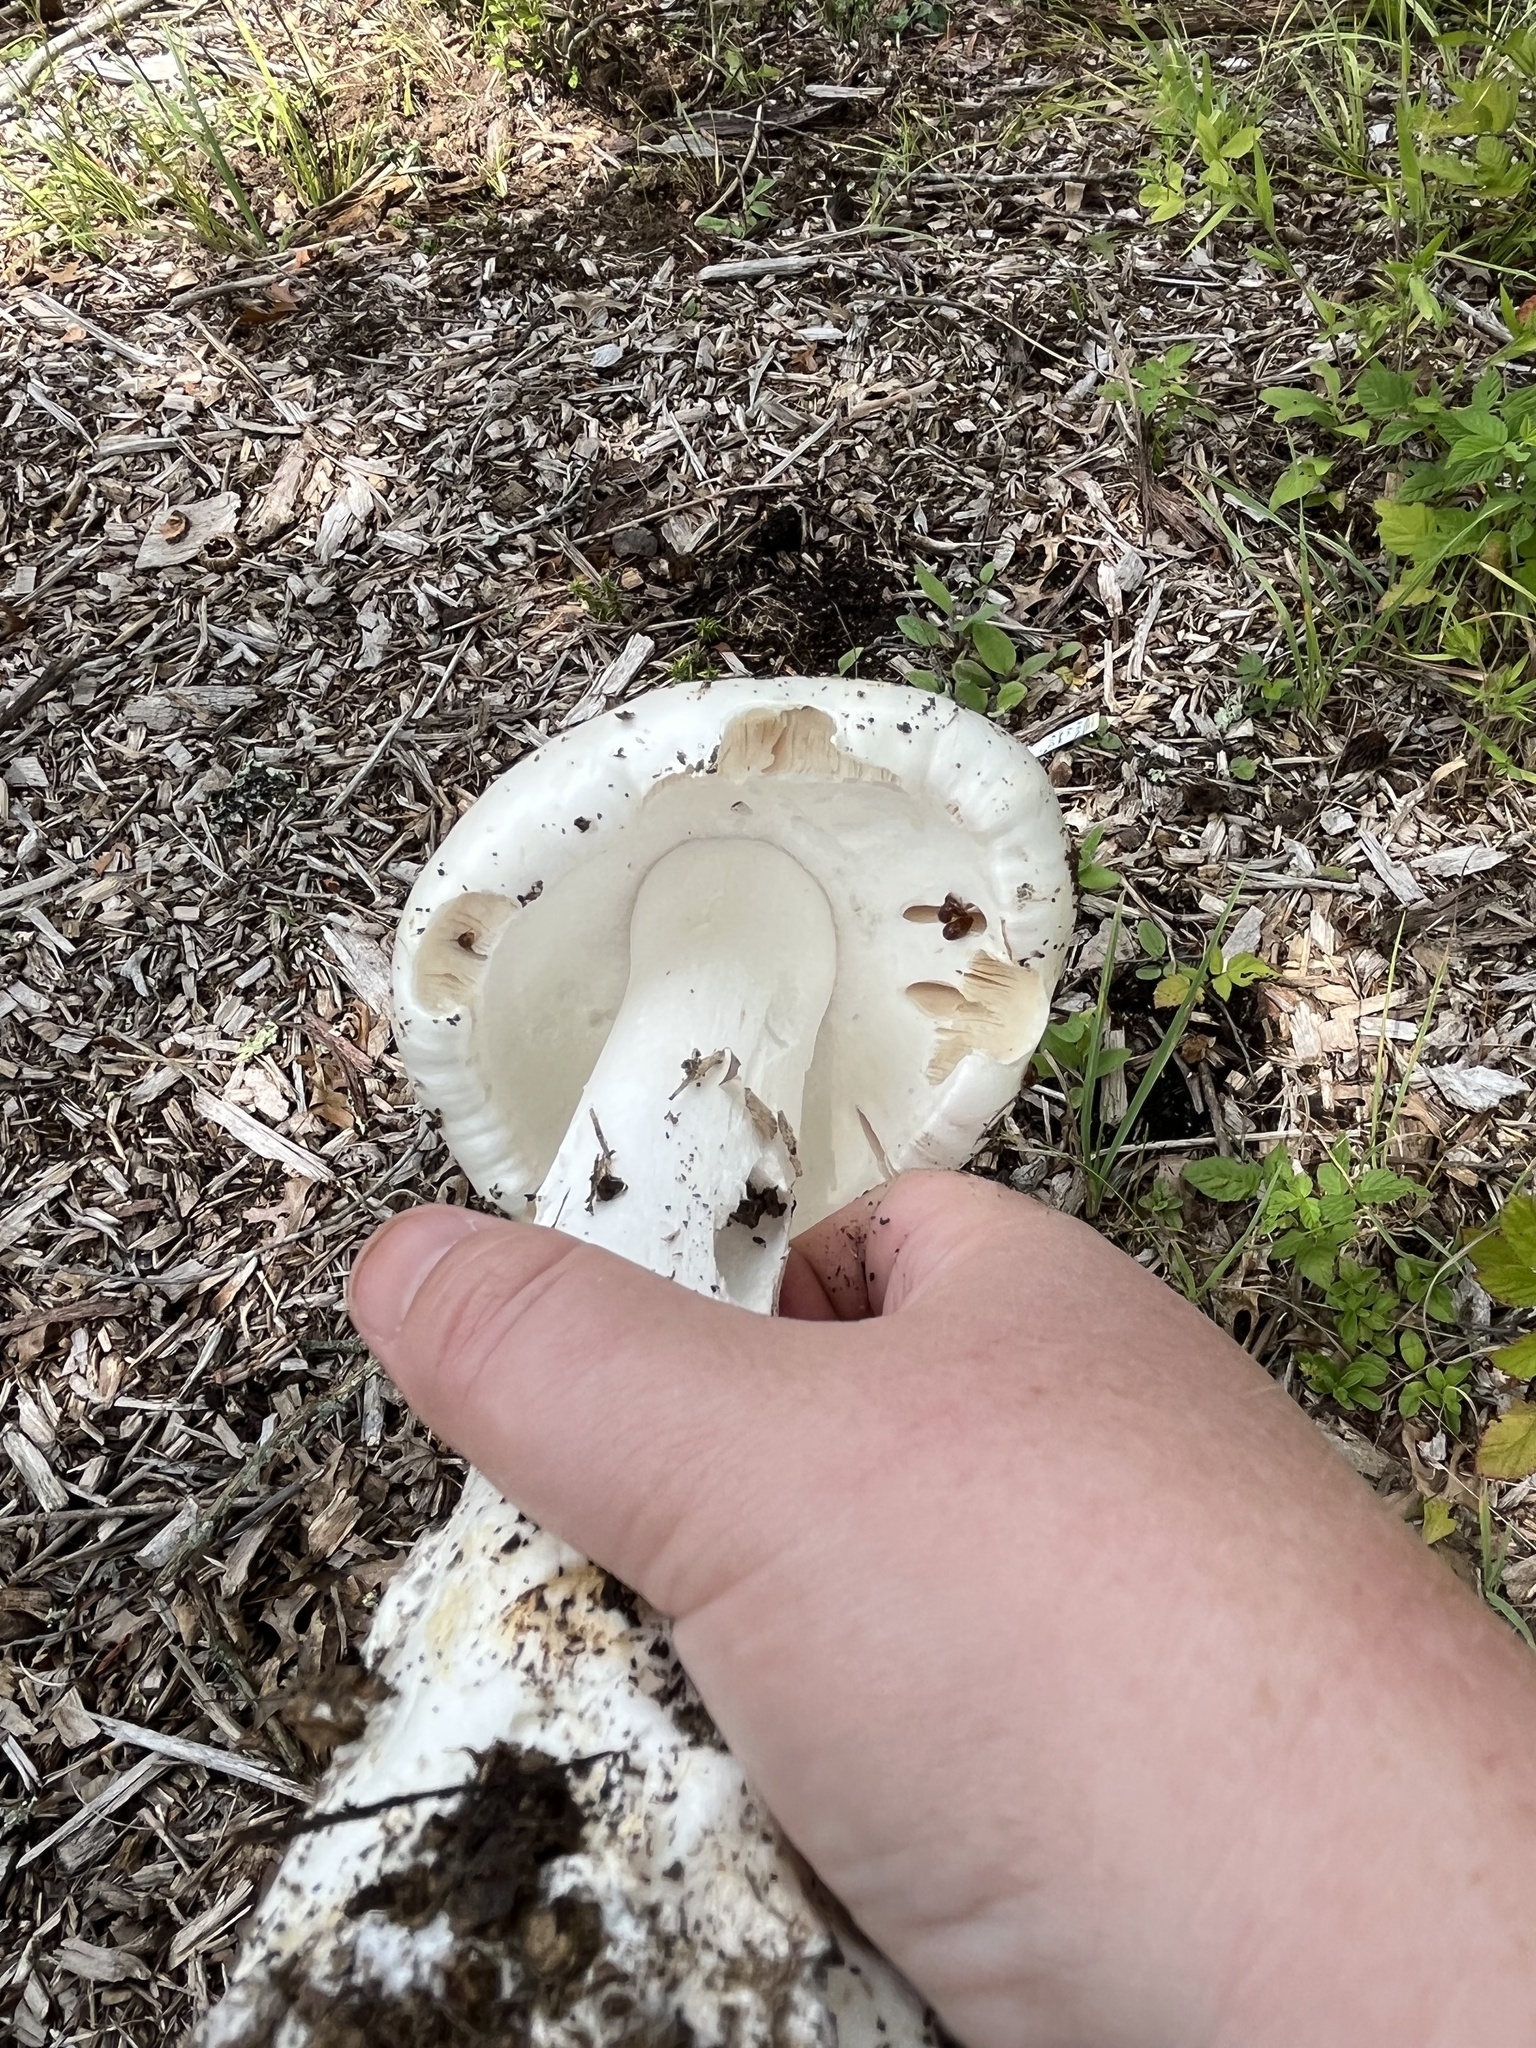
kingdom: Fungi
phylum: Basidiomycota
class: Agaricomycetes
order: Agaricales
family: Amanitaceae
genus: Amanita
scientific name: Amanita bisporigera
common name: Eastern north american destroying angel
